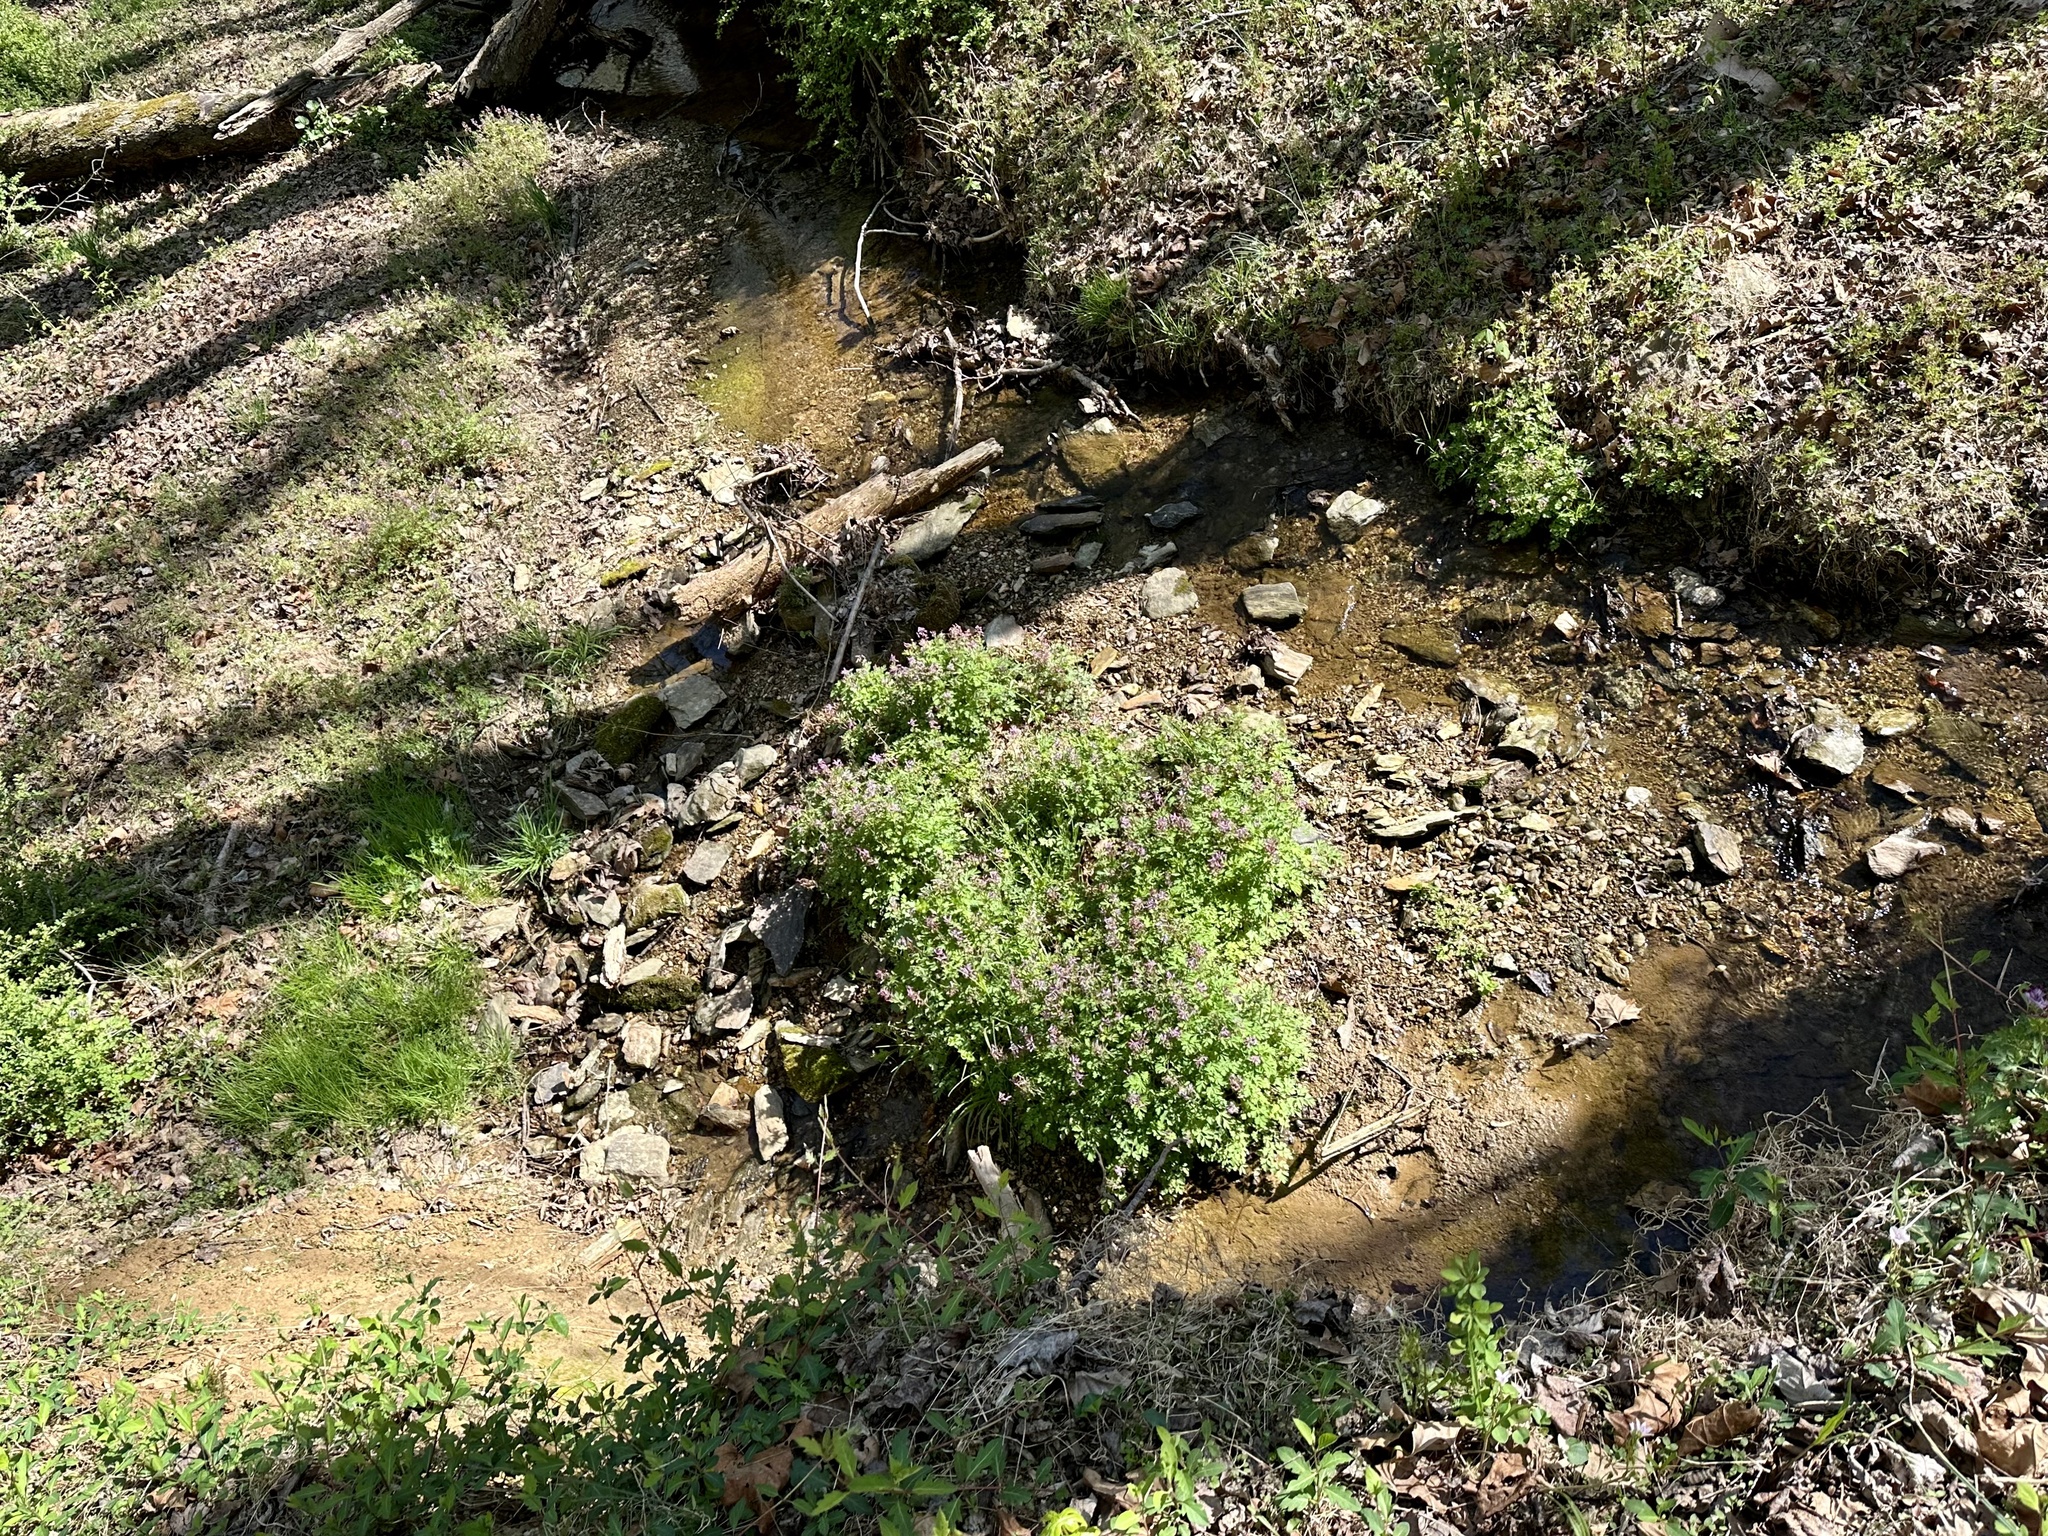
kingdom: Plantae
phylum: Tracheophyta
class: Magnoliopsida
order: Ranunculales
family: Papaveraceae
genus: Corydalis
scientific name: Corydalis incisa
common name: Incised fumewort
